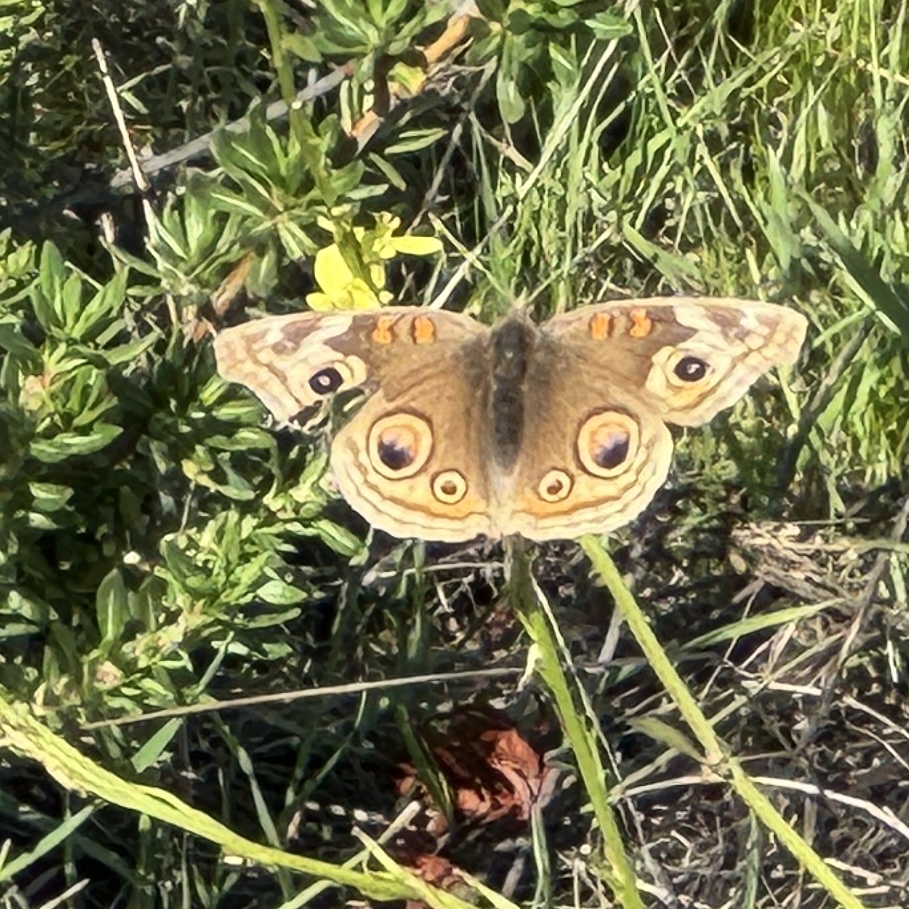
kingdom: Animalia
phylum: Arthropoda
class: Insecta
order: Lepidoptera
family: Nymphalidae
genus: Junonia
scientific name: Junonia grisea
